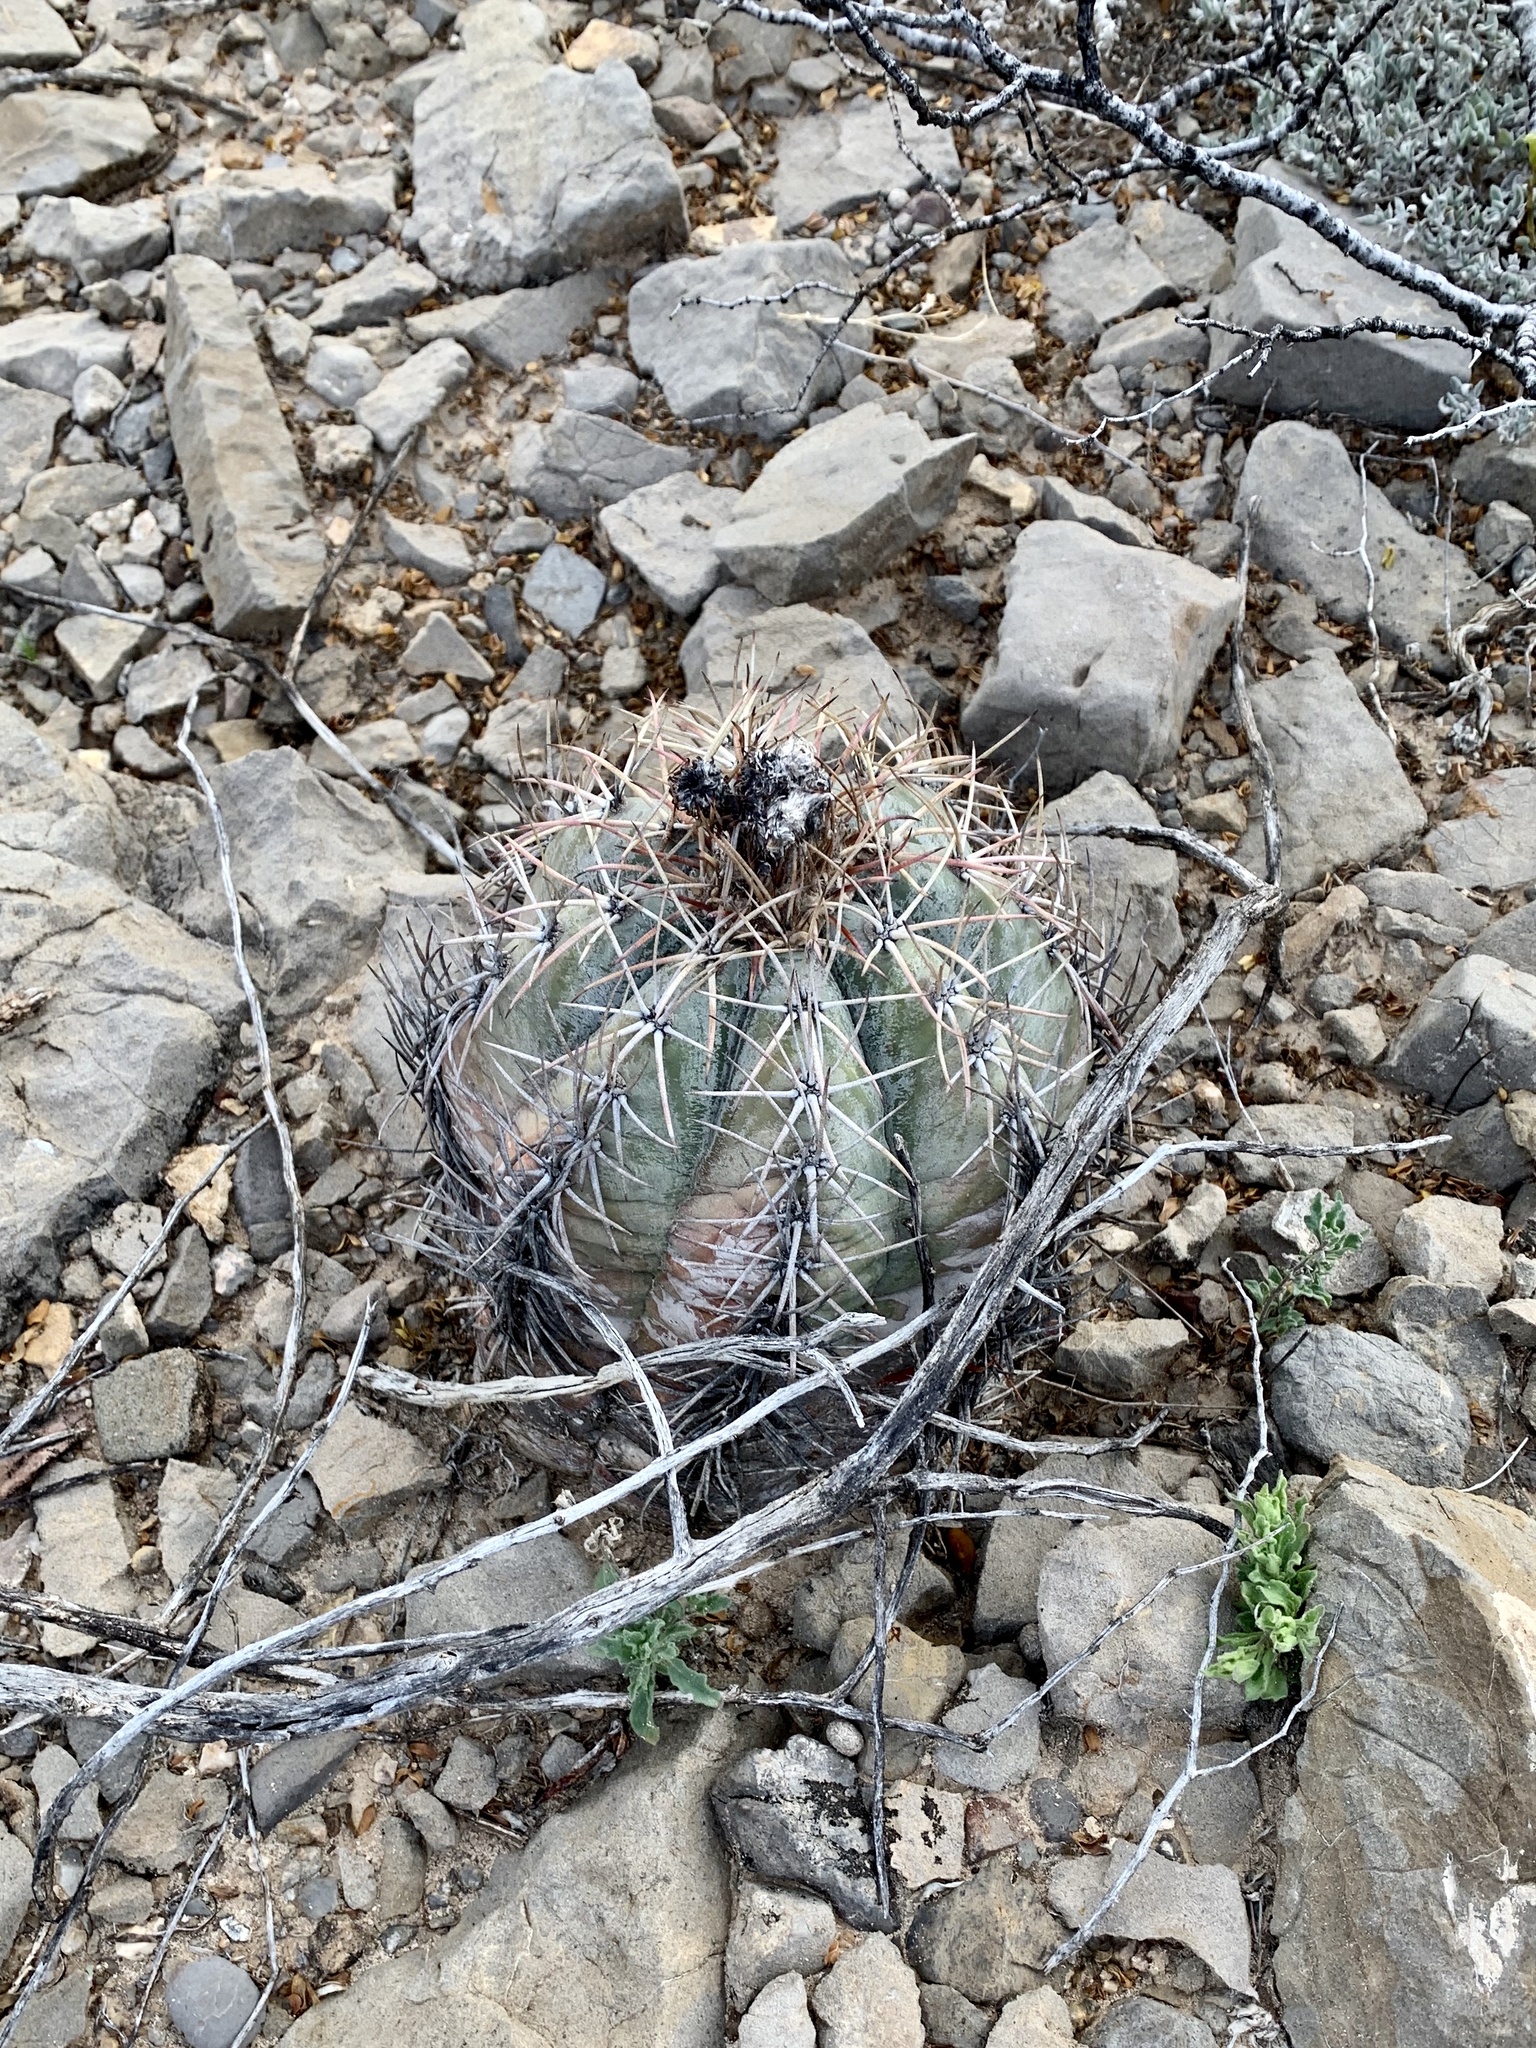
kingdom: Plantae
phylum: Tracheophyta
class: Magnoliopsida
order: Caryophyllales
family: Cactaceae
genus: Echinocactus
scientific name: Echinocactus horizonthalonius
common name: Devilshead
